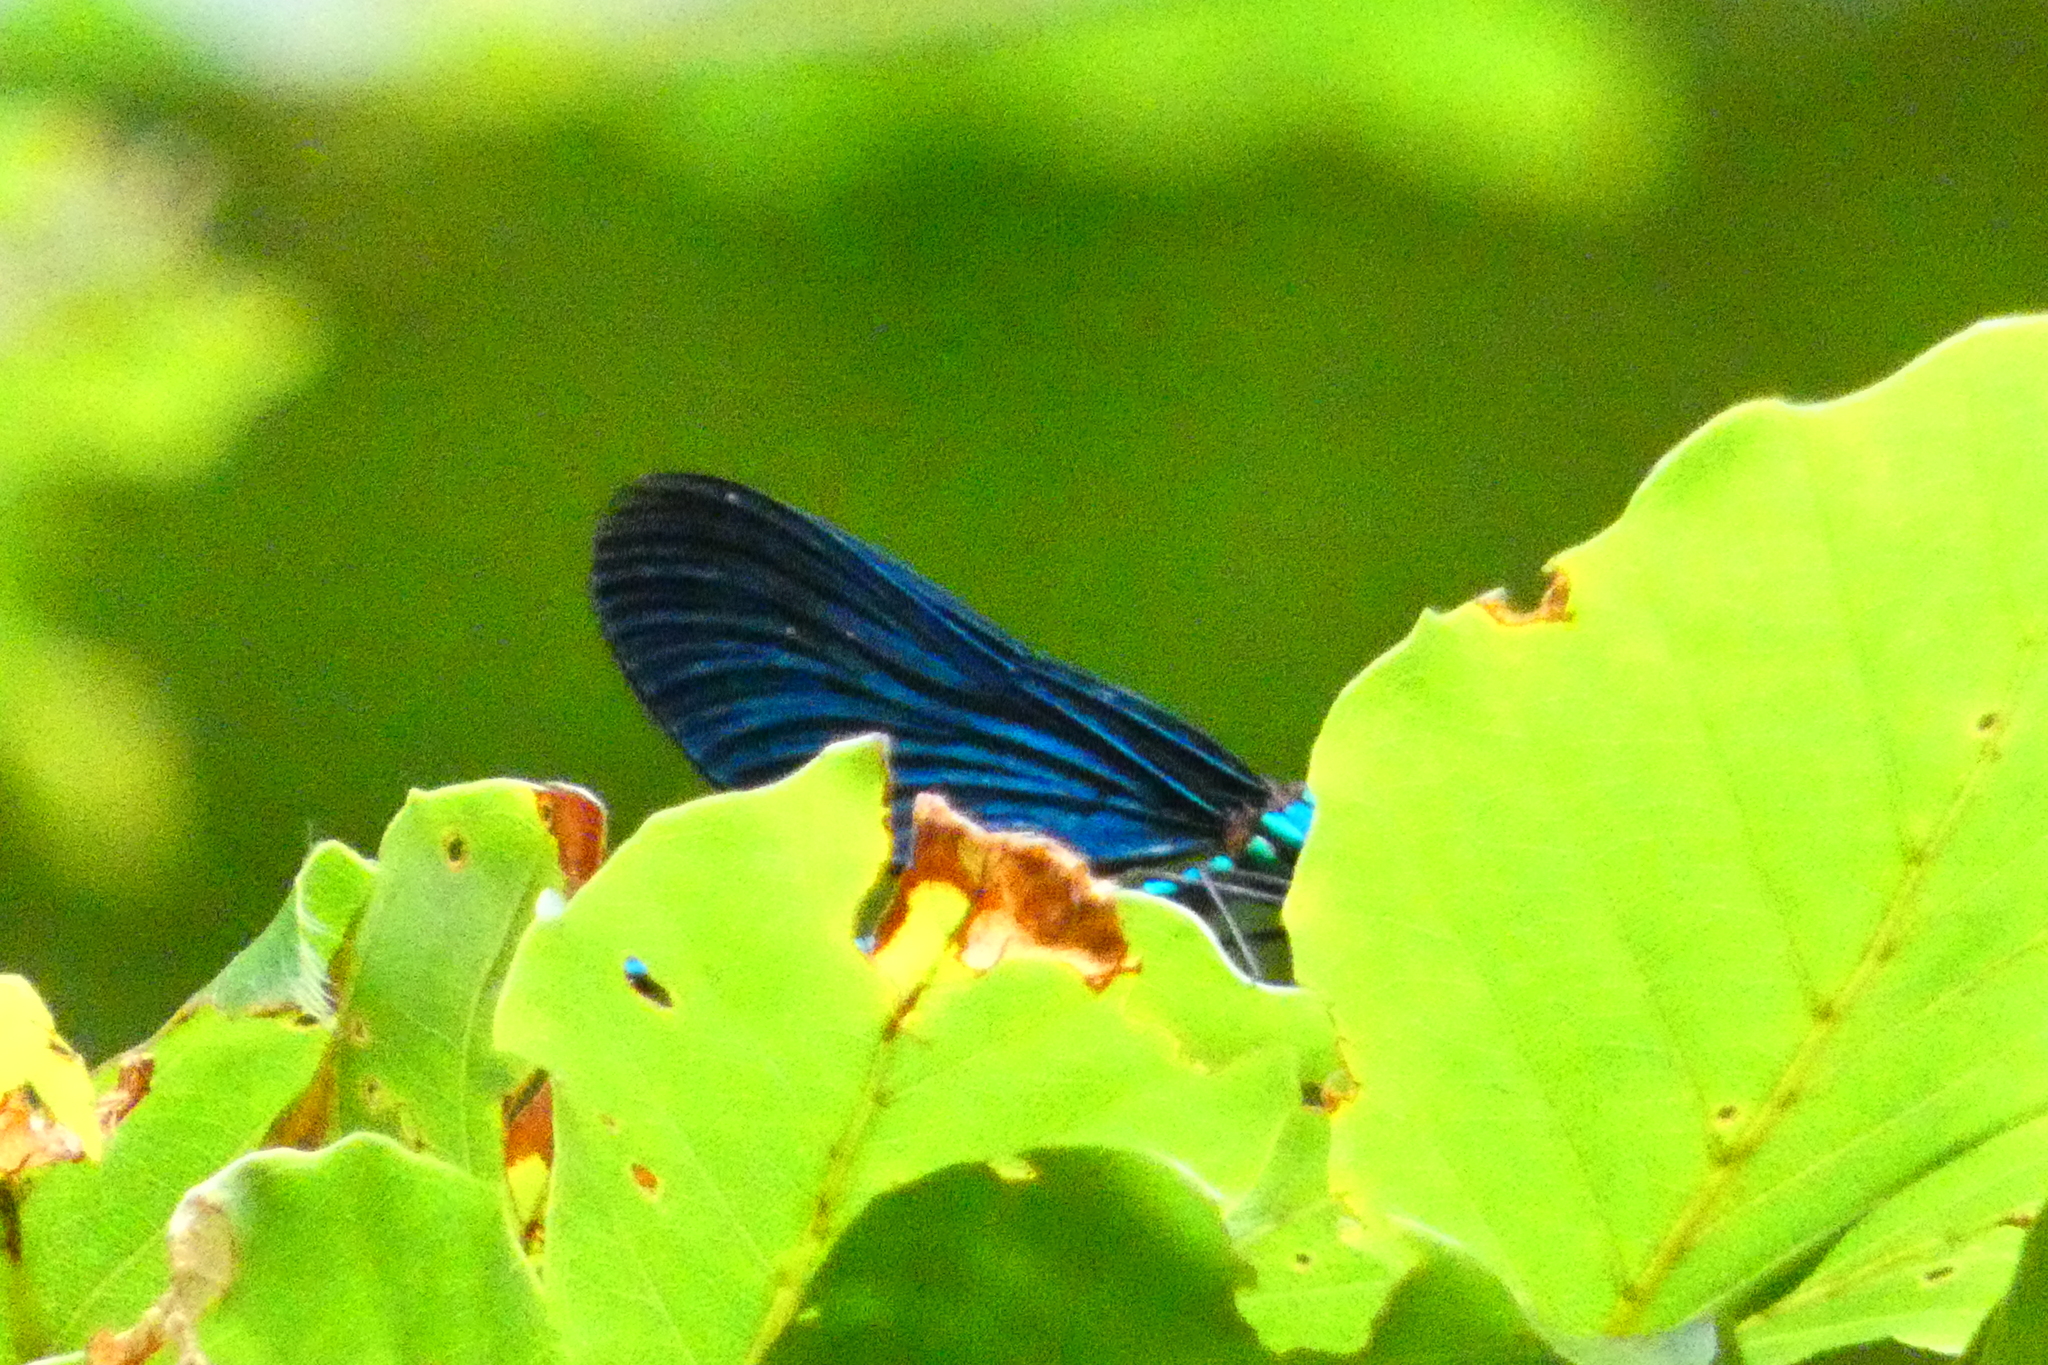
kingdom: Animalia
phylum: Arthropoda
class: Insecta
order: Odonata
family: Calopterygidae
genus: Calopteryx
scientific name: Calopteryx virgo
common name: Beautiful demoiselle
